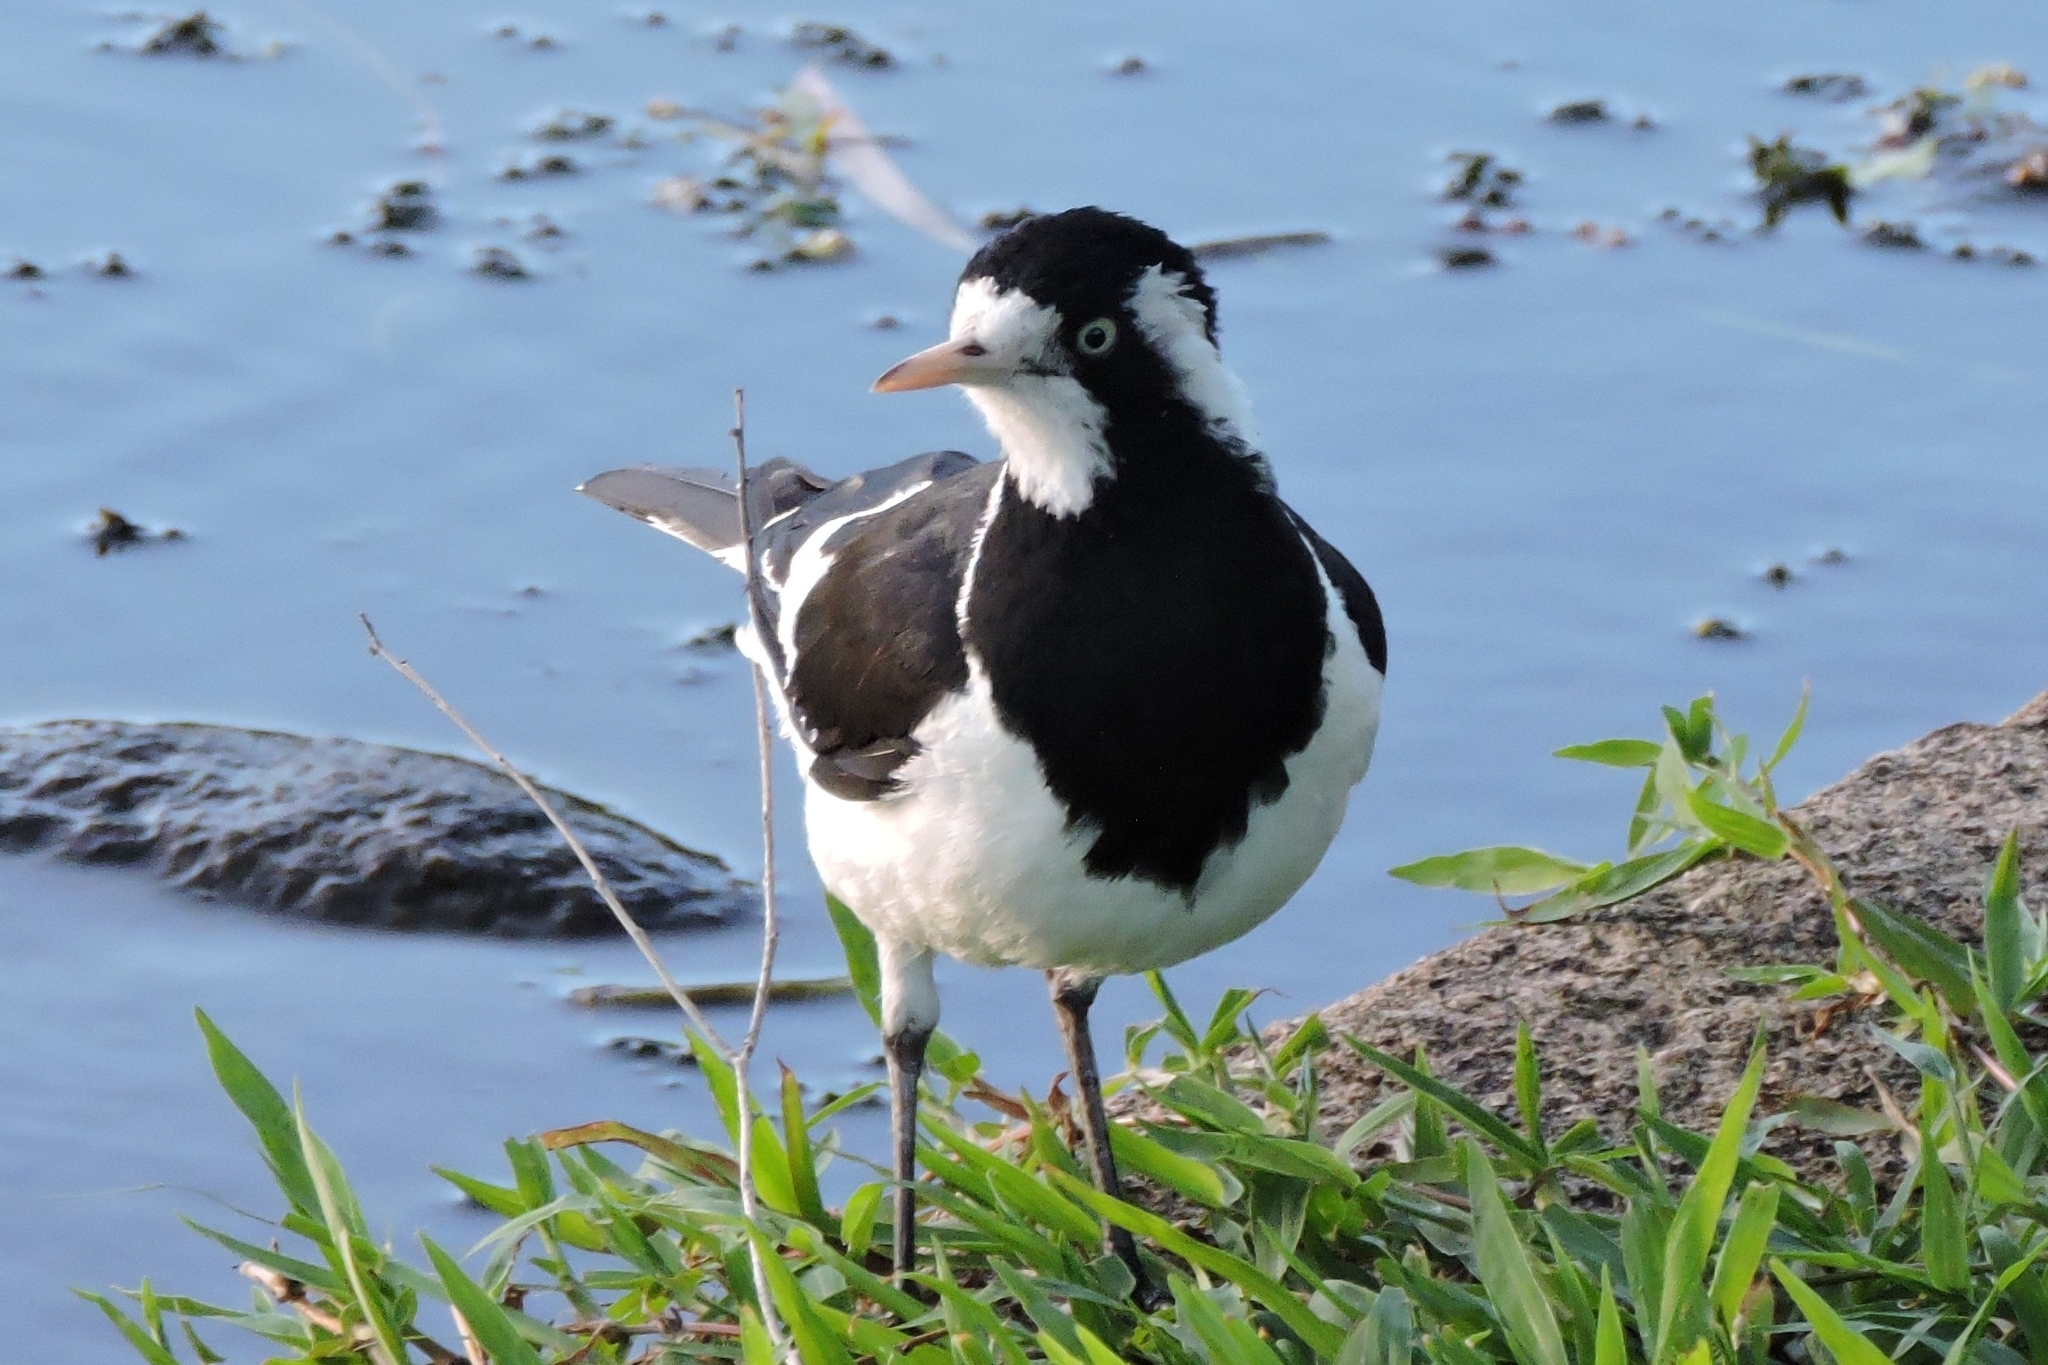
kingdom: Animalia
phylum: Chordata
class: Aves
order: Passeriformes
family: Monarchidae
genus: Grallina
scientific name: Grallina cyanoleuca
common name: Magpie-lark
